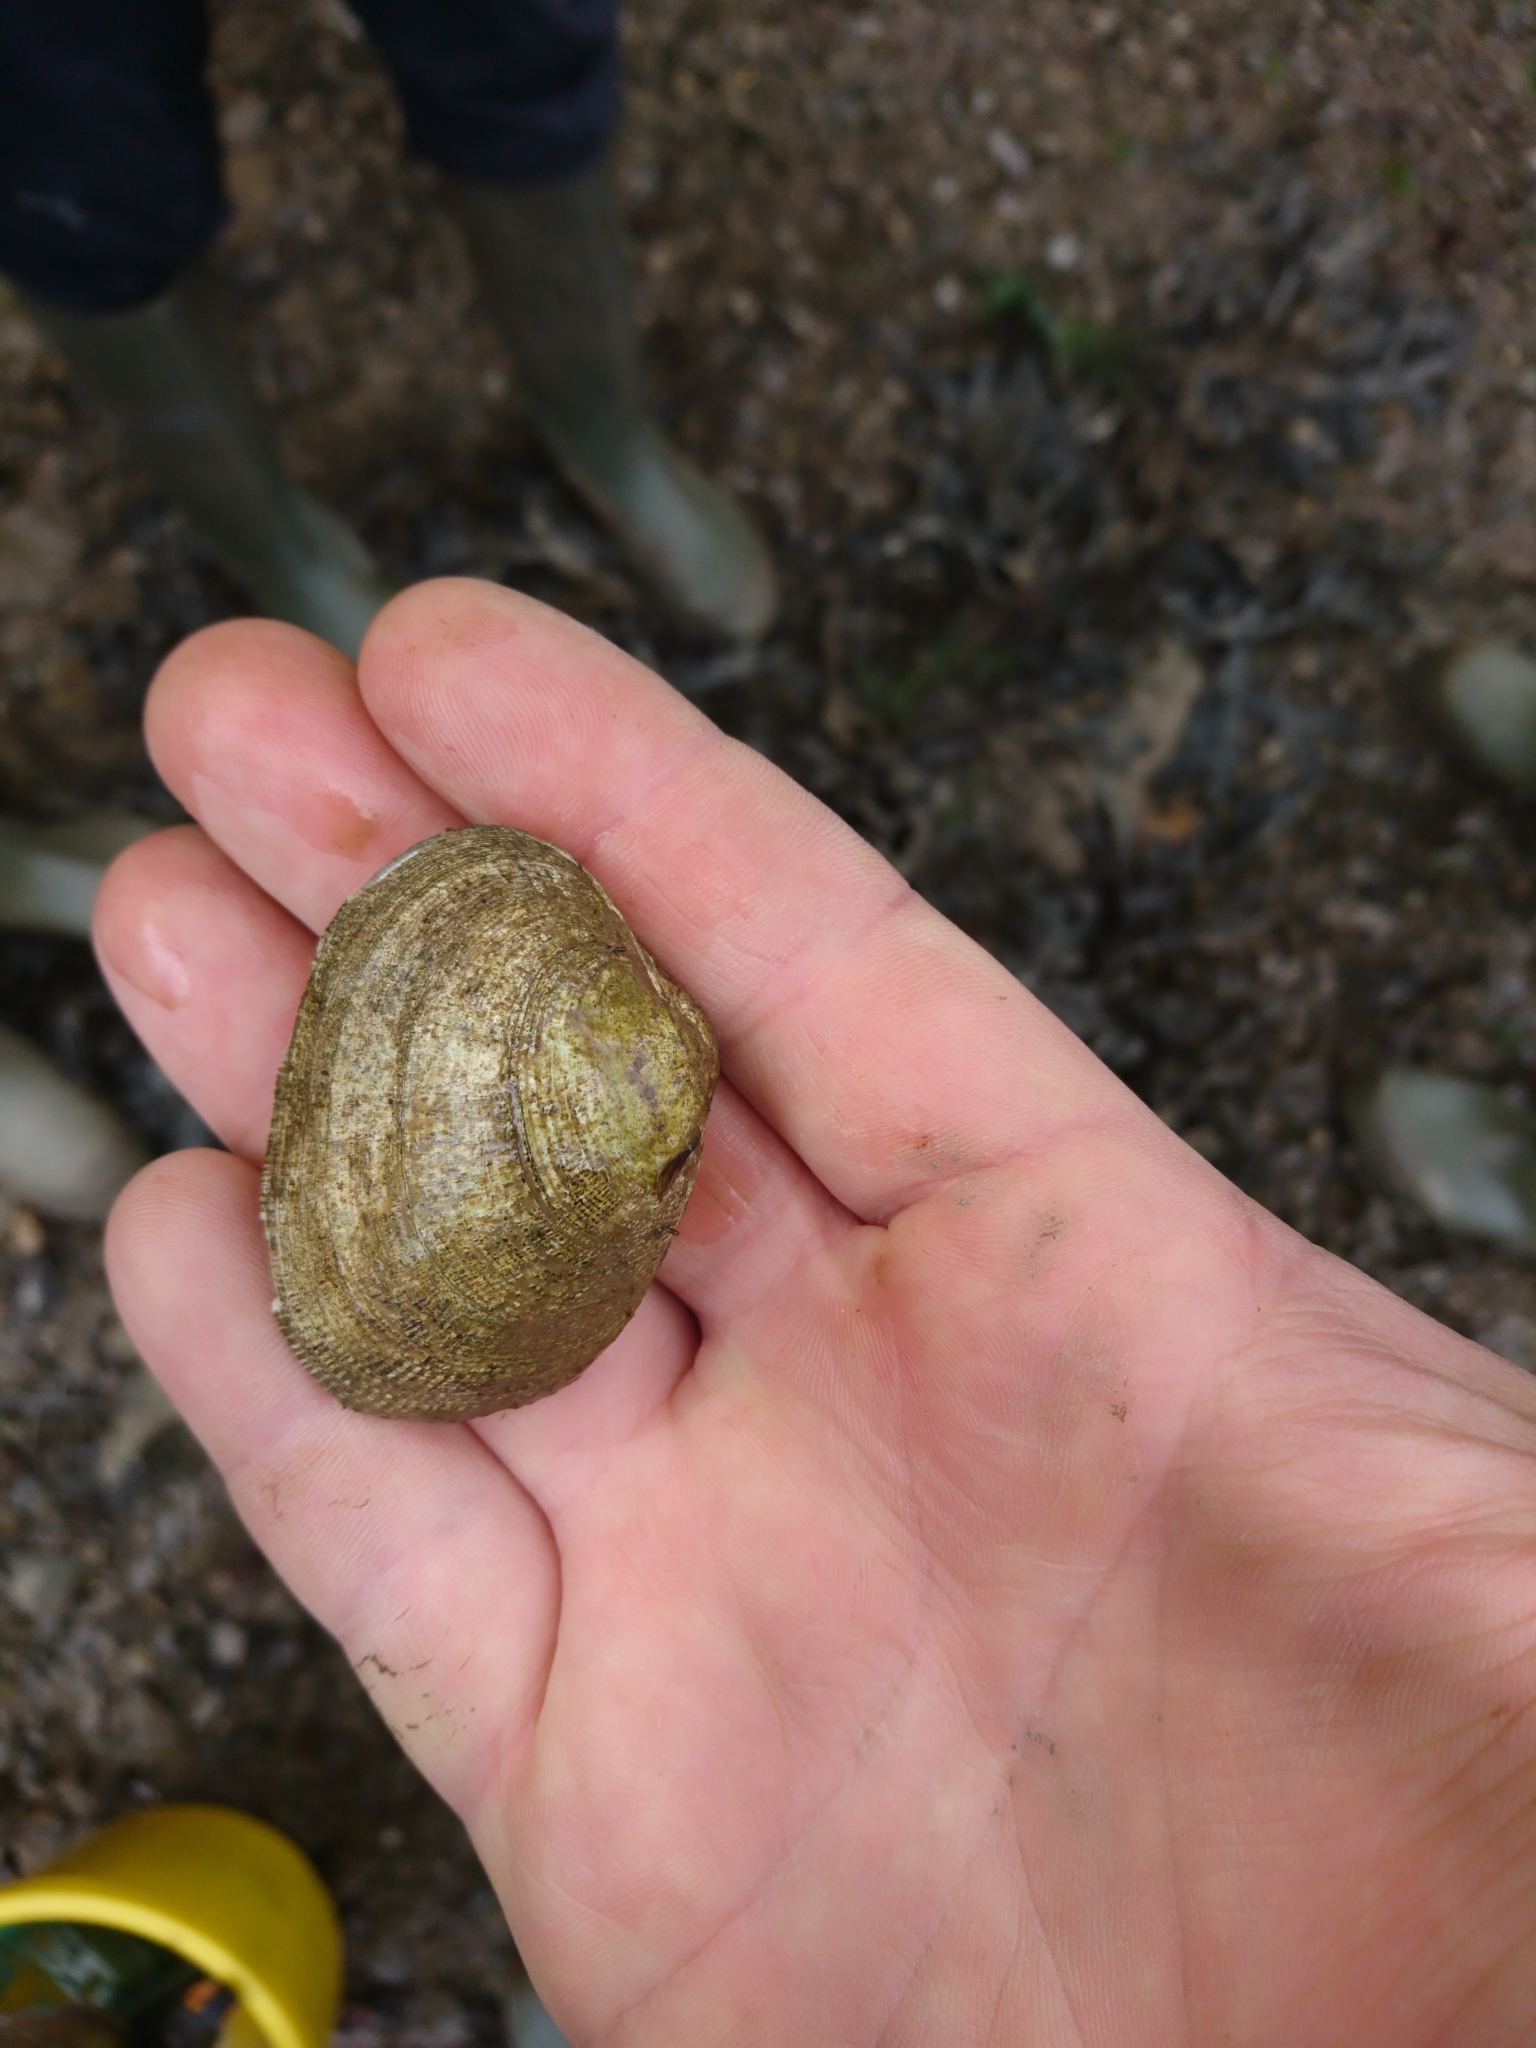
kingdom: Animalia
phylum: Mollusca
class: Bivalvia
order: Venerida
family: Veneridae
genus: Ruditapes
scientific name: Ruditapes decussatus
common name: Chequered carpet shell
